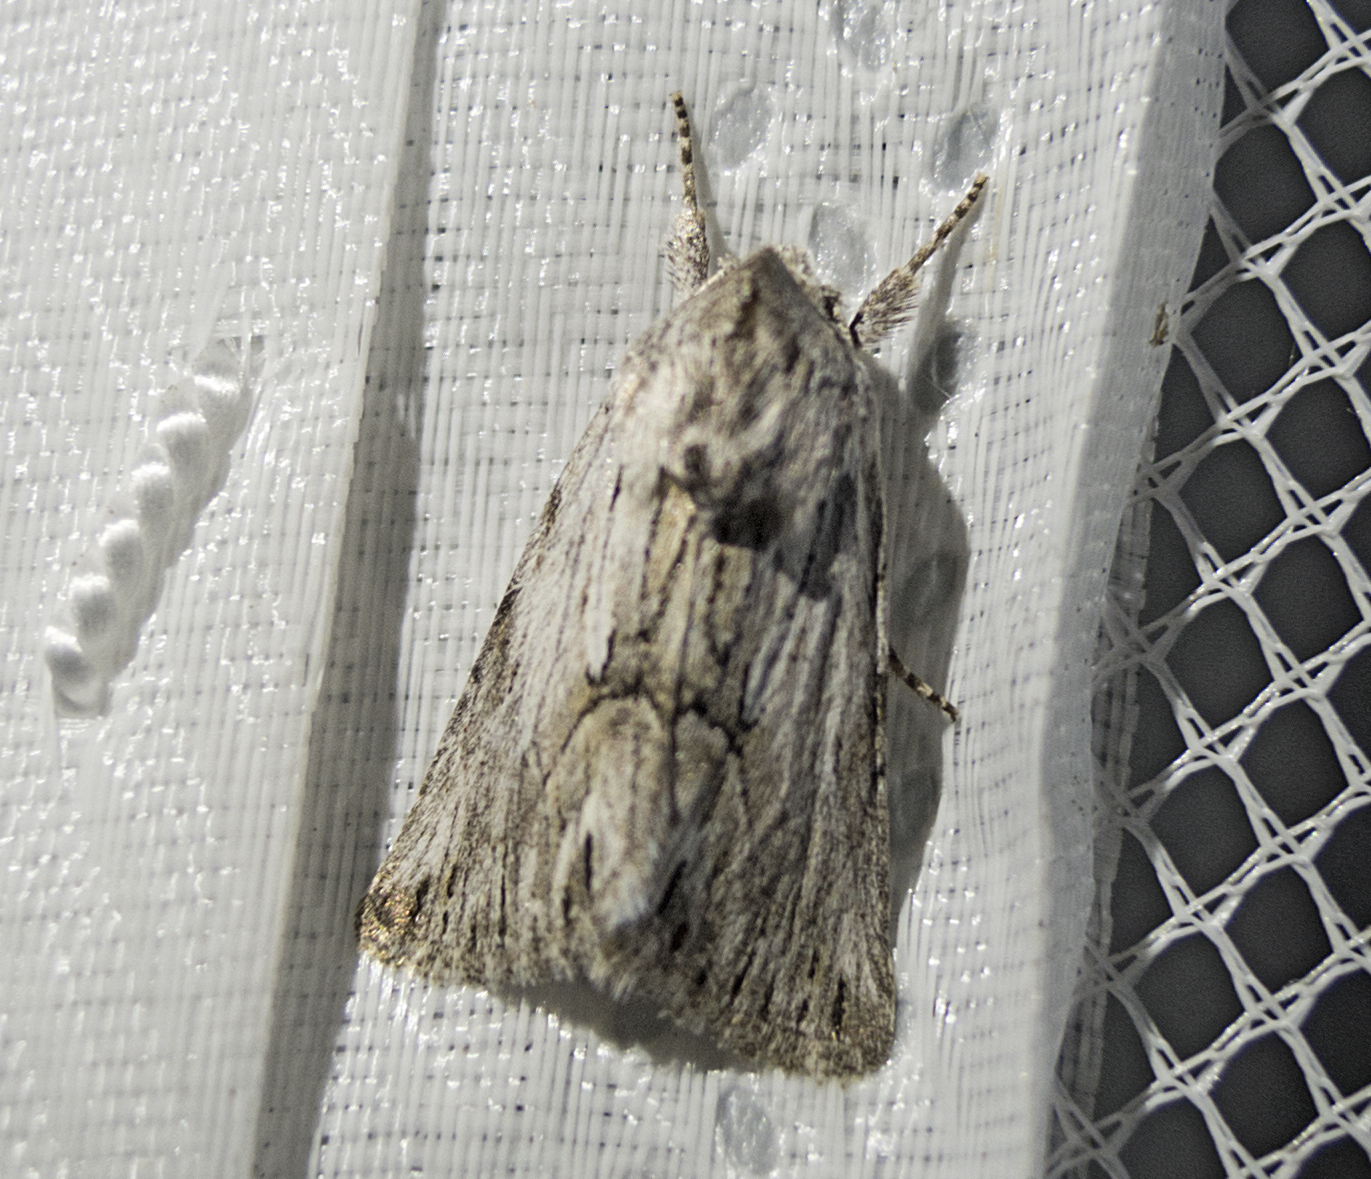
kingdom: Animalia
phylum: Arthropoda
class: Insecta
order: Lepidoptera
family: Noctuidae
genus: Calophasia
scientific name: Calophasia platyptera
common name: Antirrhinum brocade
